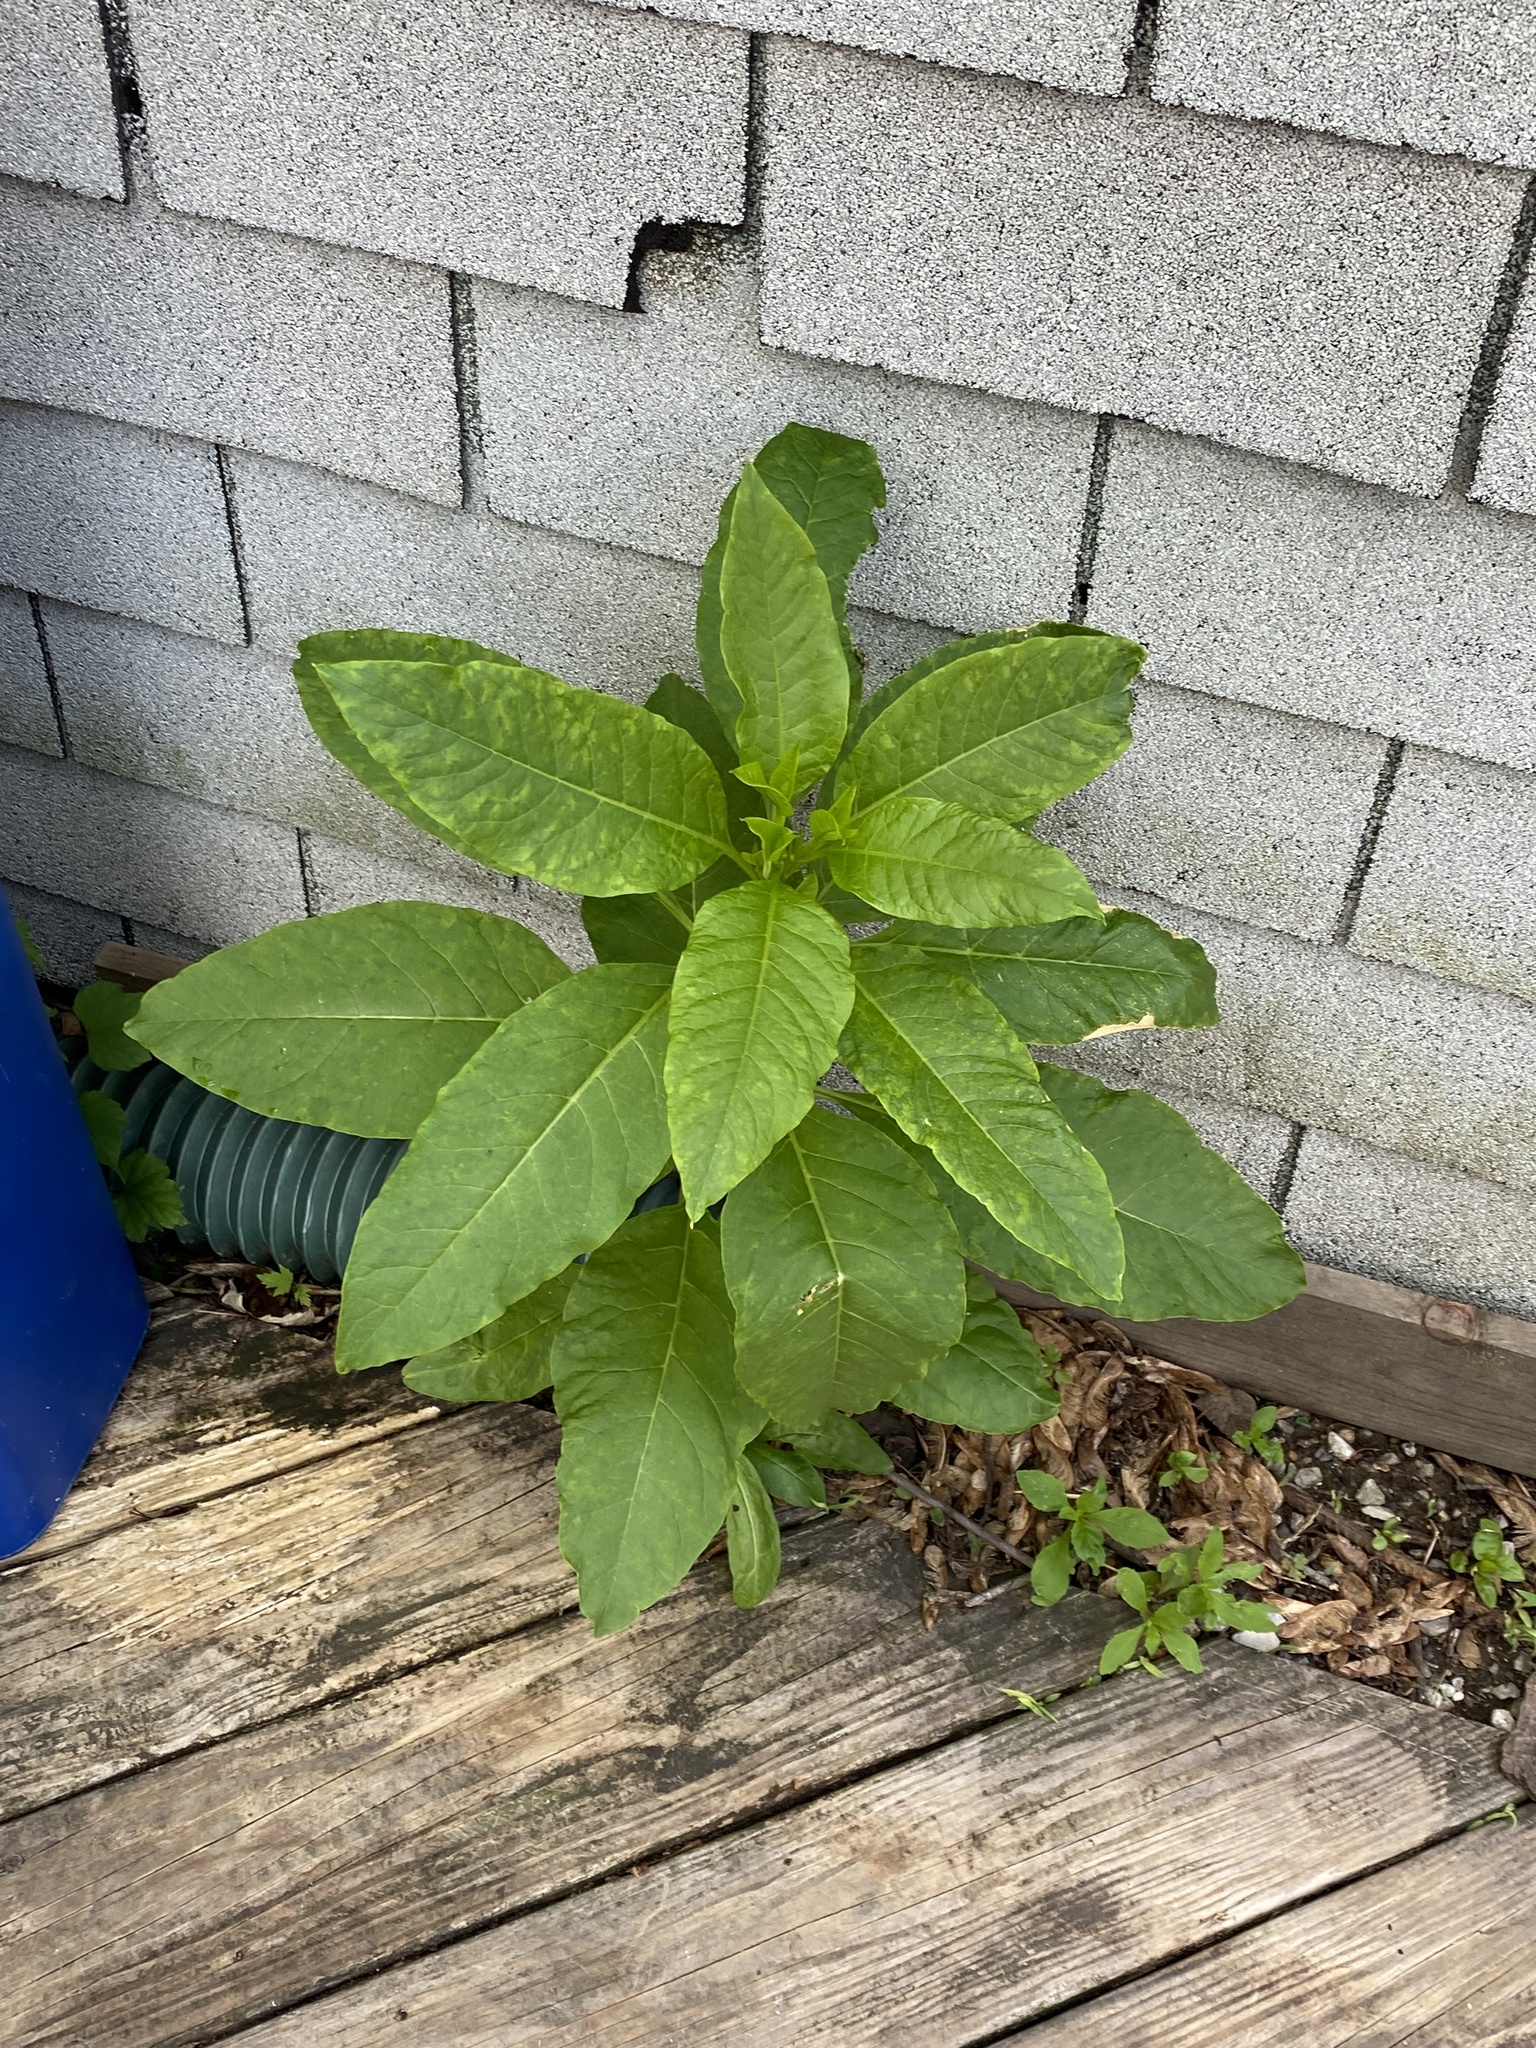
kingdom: Plantae
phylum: Tracheophyta
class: Magnoliopsida
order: Caryophyllales
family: Phytolaccaceae
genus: Phytolacca
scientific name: Phytolacca americana
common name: American pokeweed
